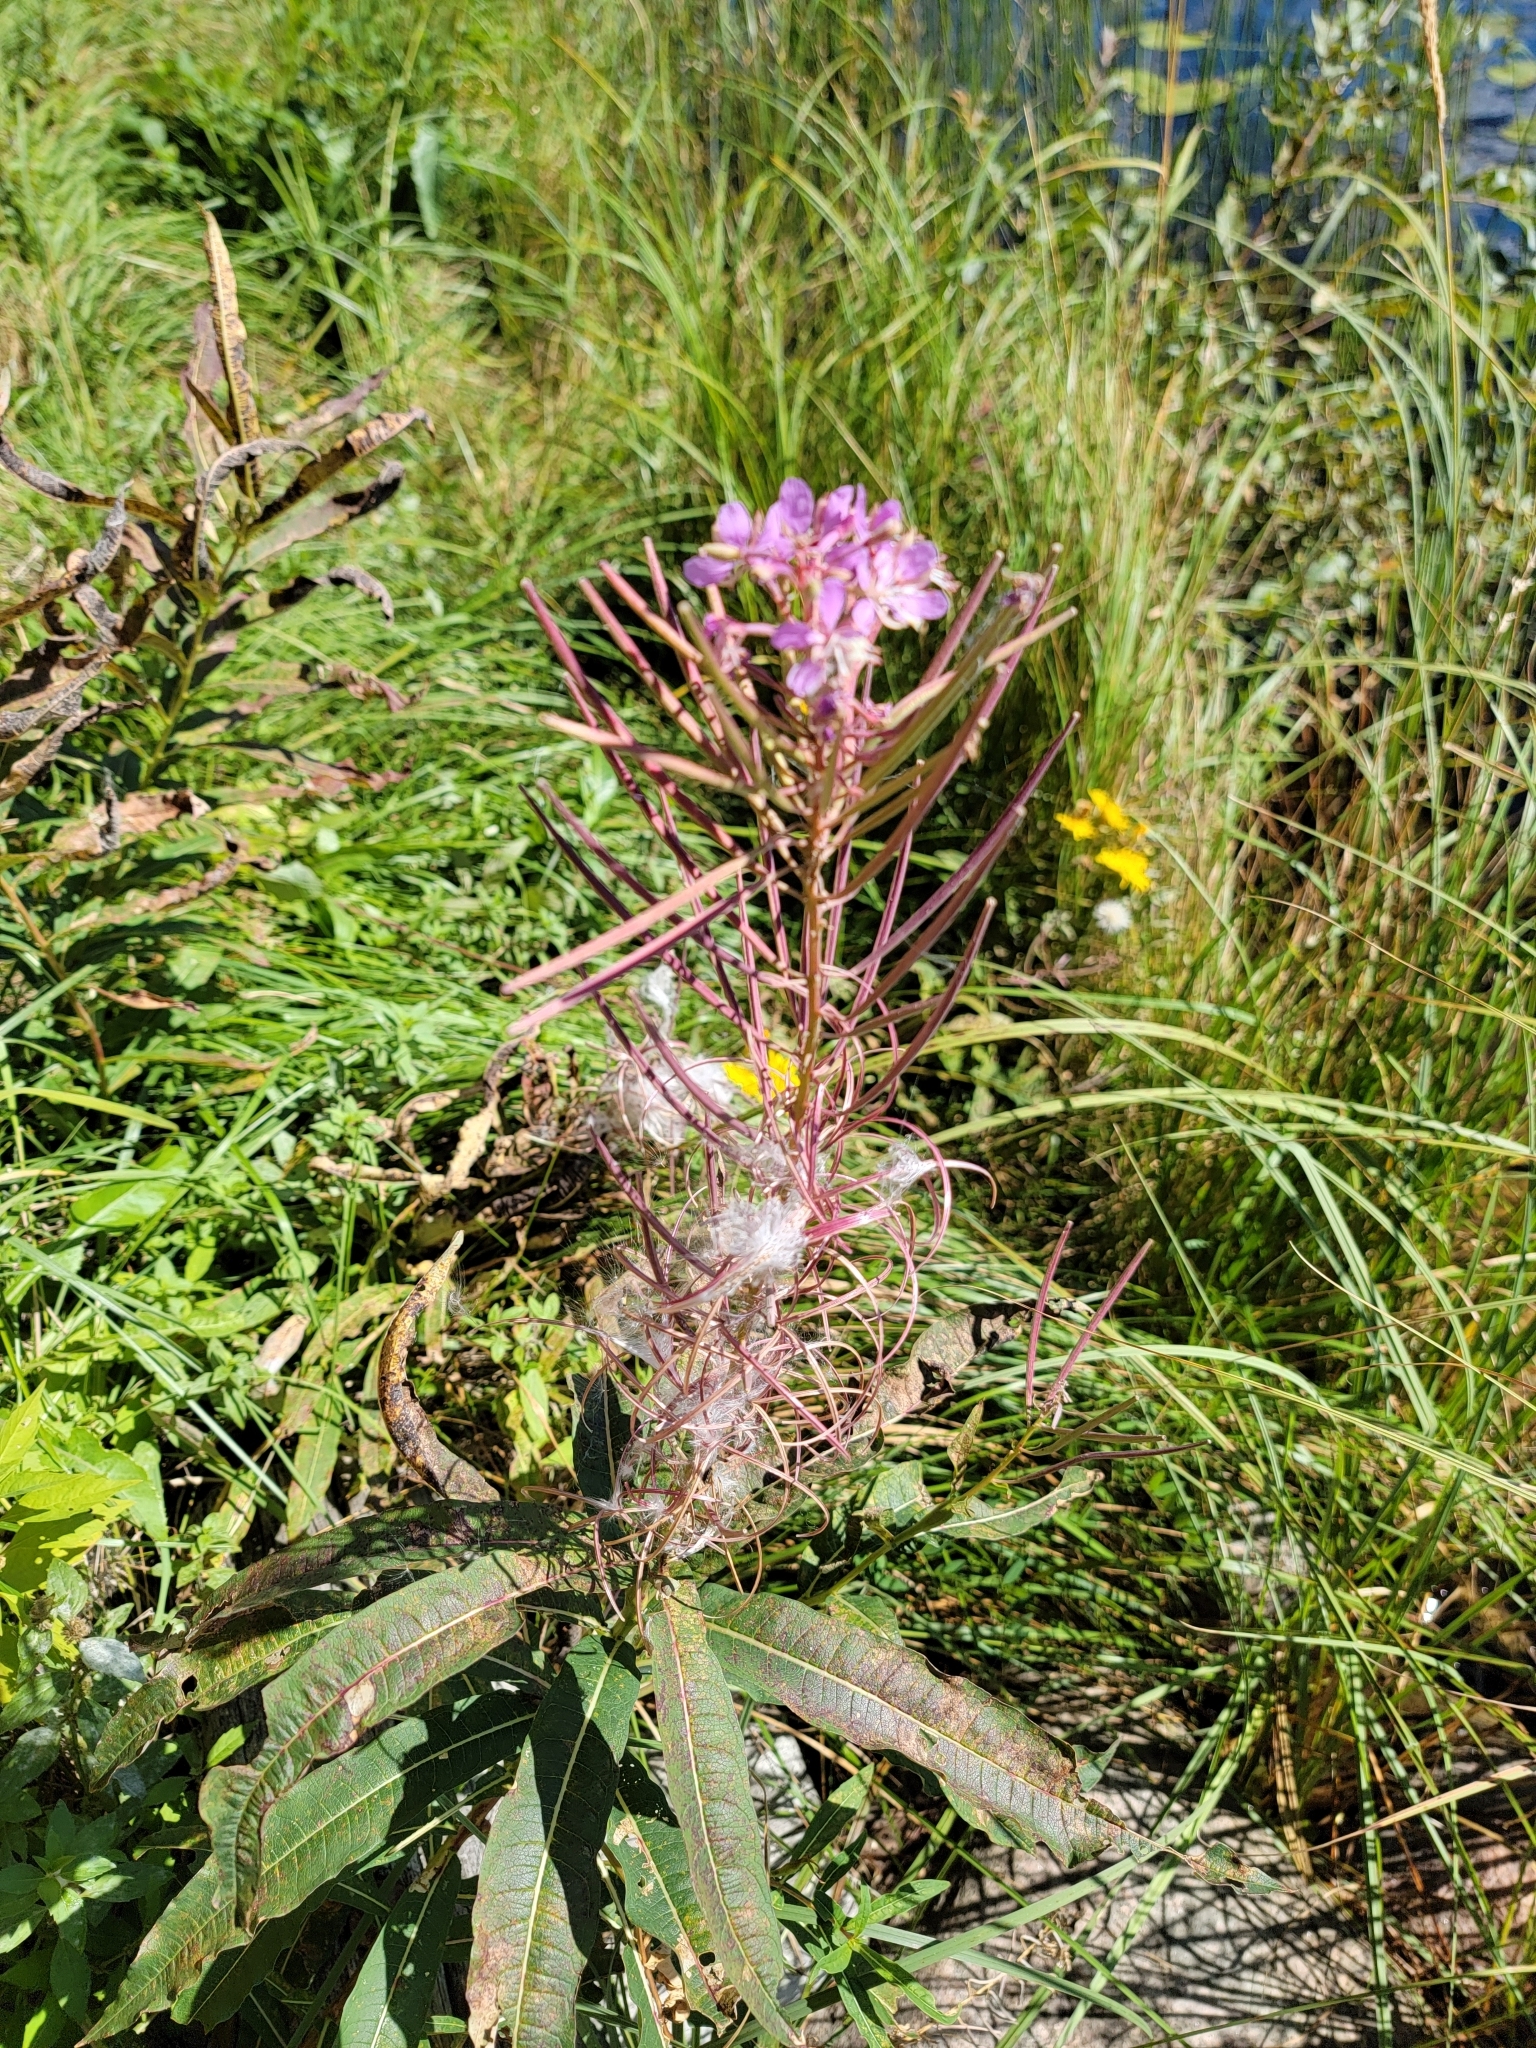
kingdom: Plantae
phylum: Tracheophyta
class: Magnoliopsida
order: Myrtales
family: Onagraceae
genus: Chamaenerion
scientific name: Chamaenerion angustifolium
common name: Fireweed
